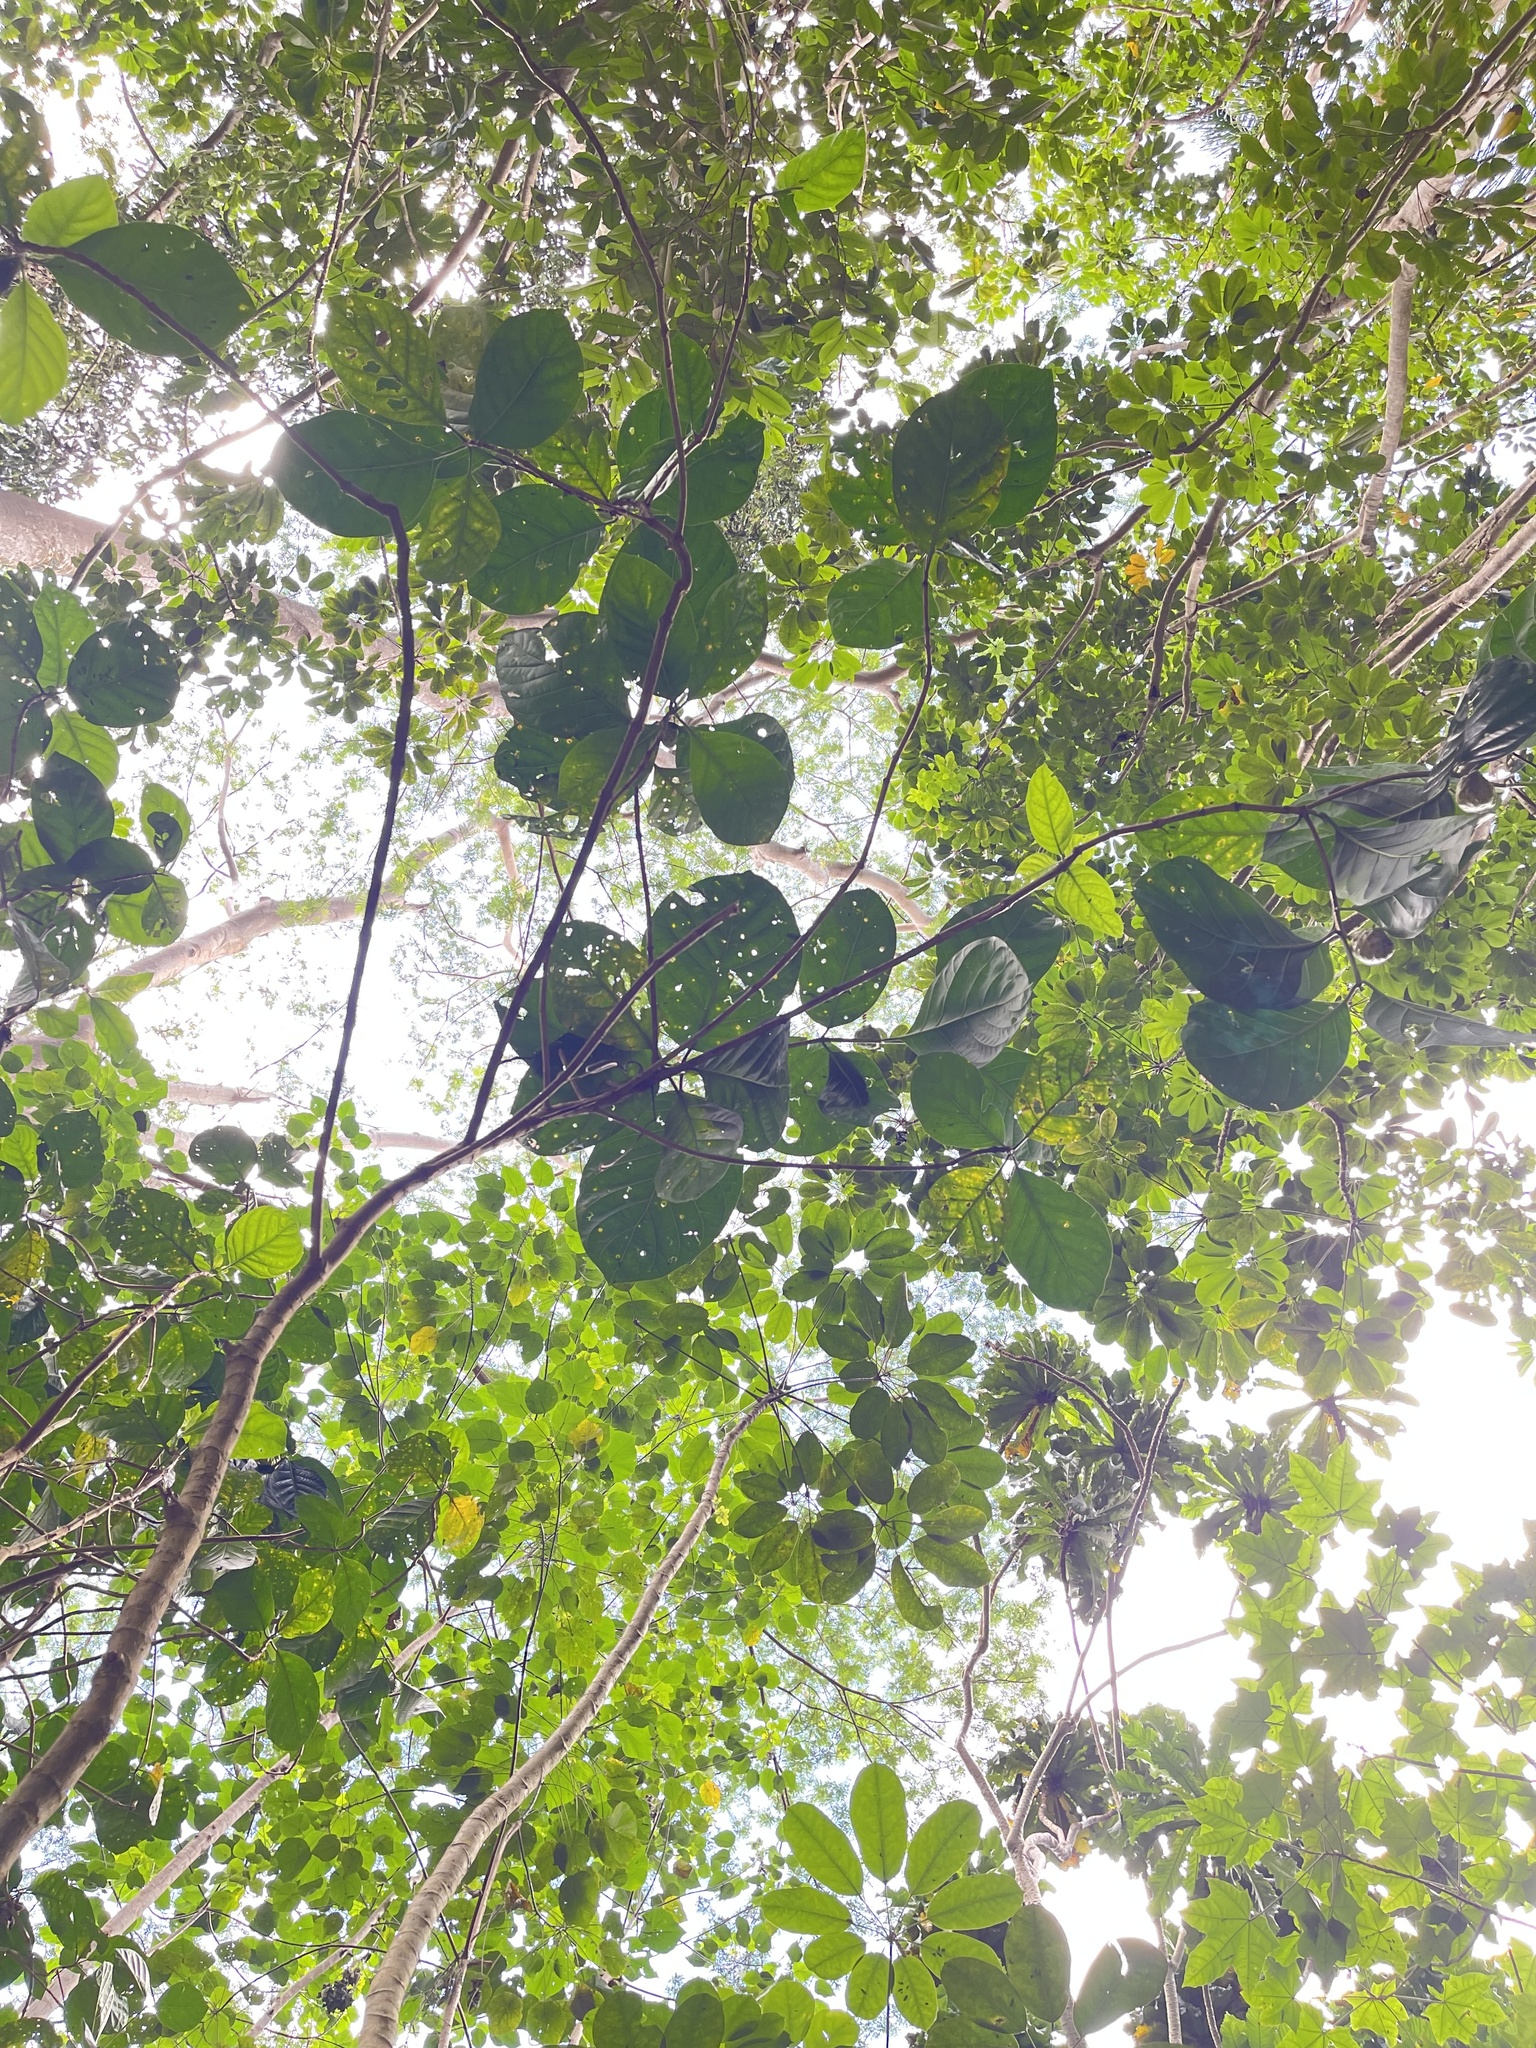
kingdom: Plantae
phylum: Tracheophyta
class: Magnoliopsida
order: Gentianales
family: Rubiaceae
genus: Morinda
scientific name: Morinda citrifolia
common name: Indian-mulberry
